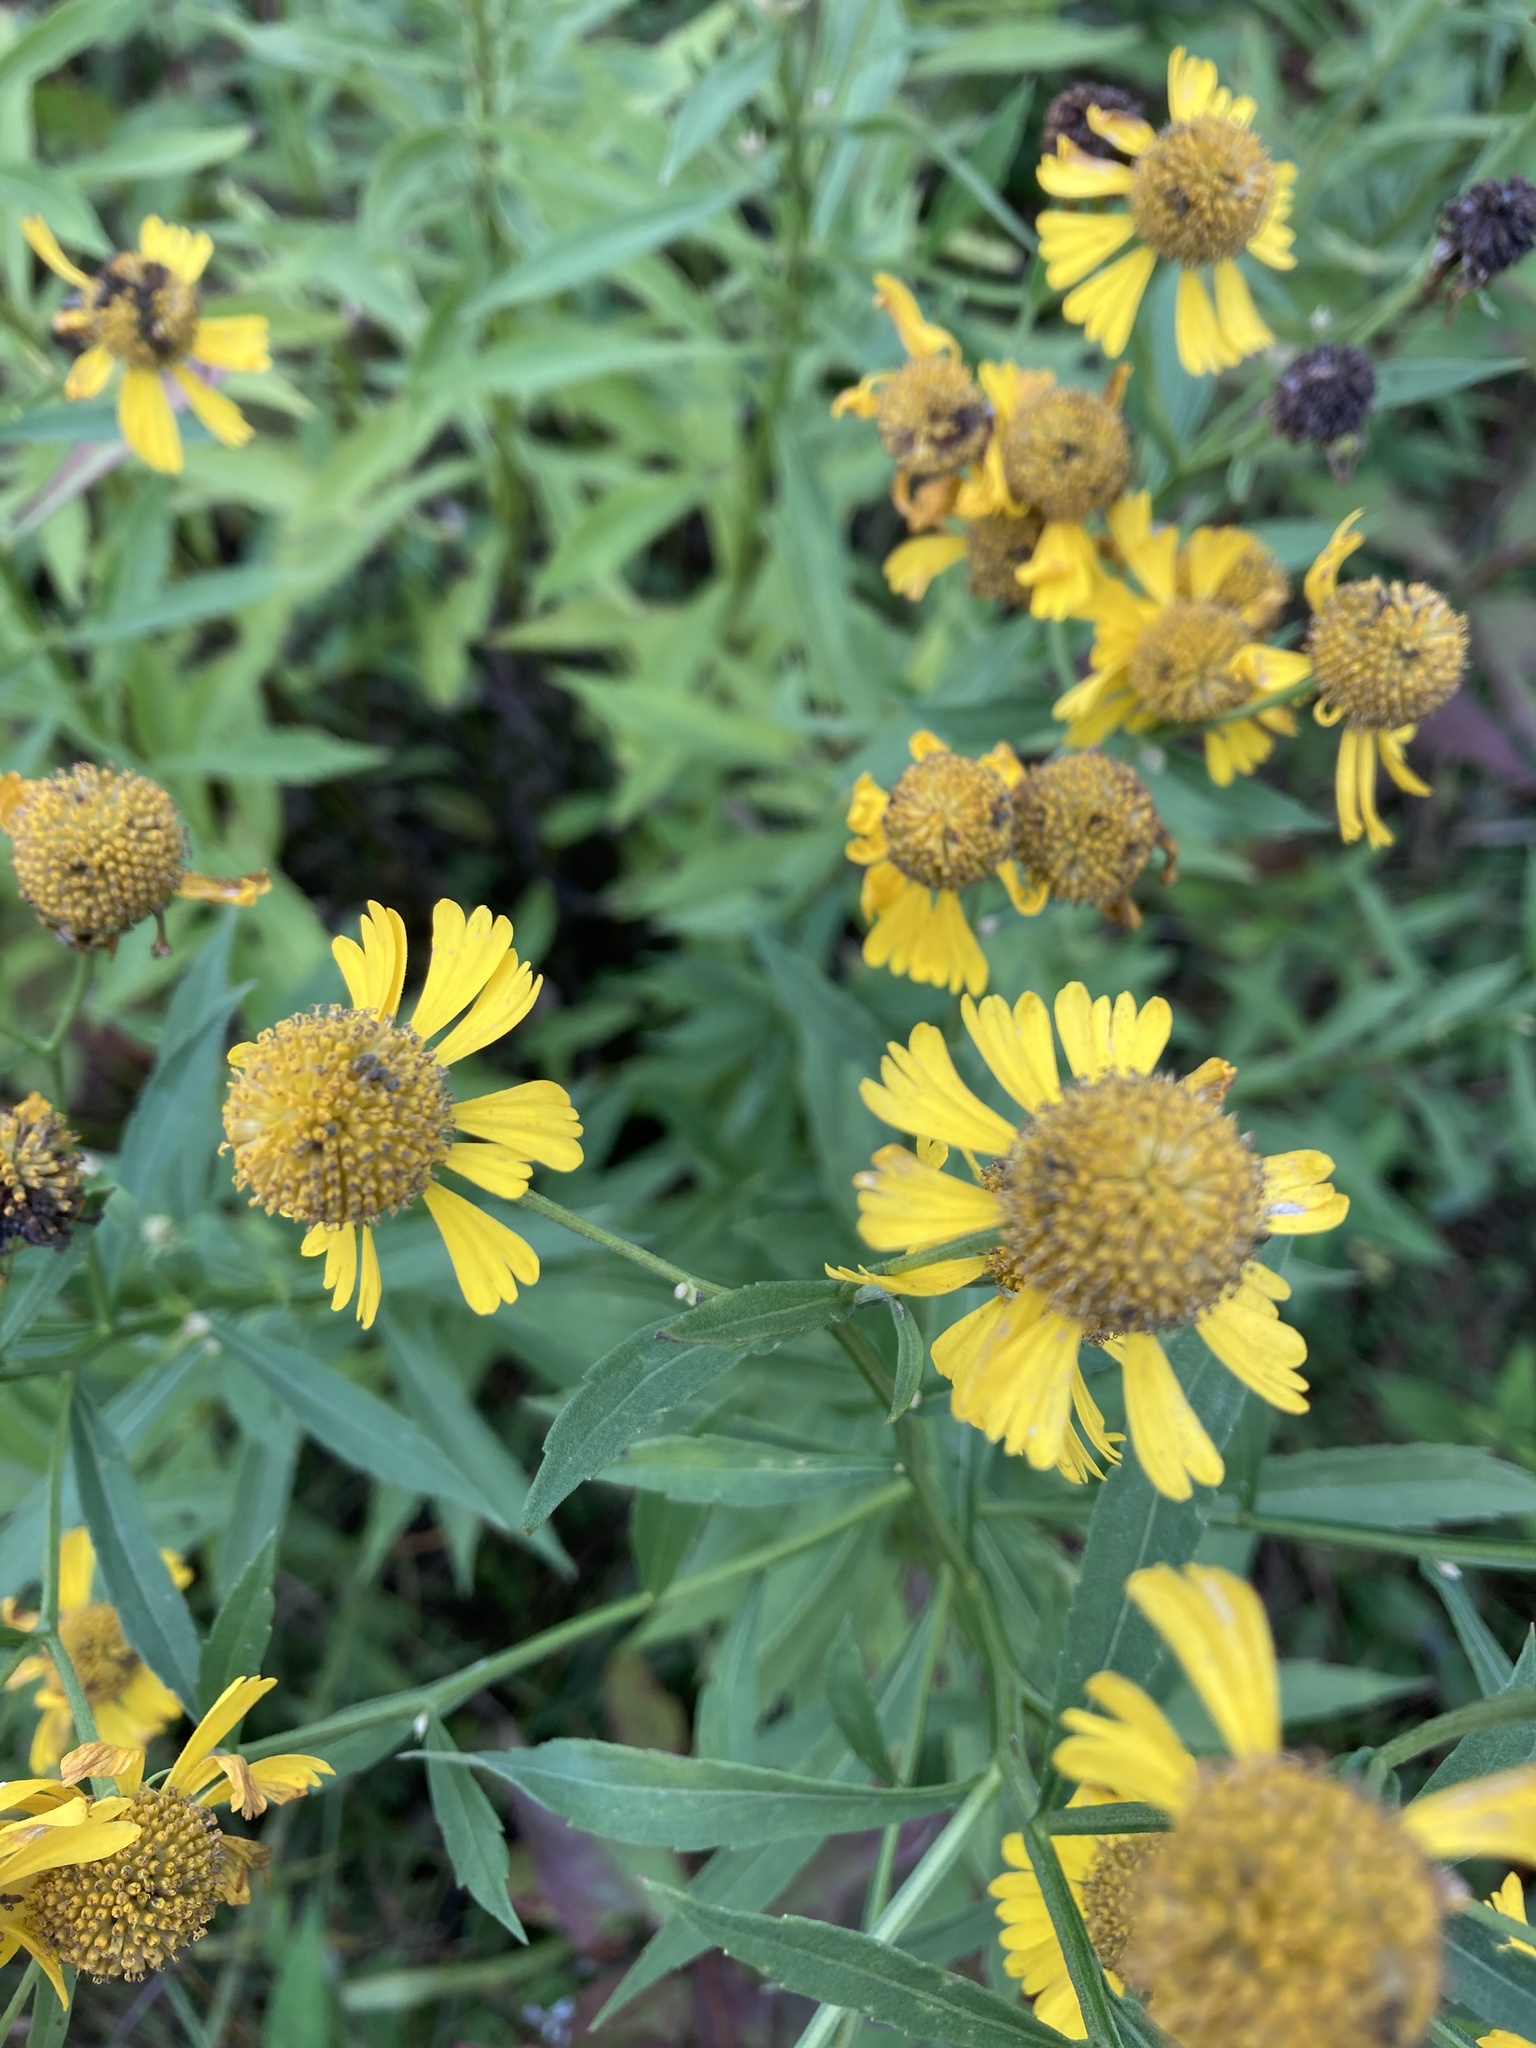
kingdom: Plantae
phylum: Tracheophyta
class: Magnoliopsida
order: Asterales
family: Asteraceae
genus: Helenium
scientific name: Helenium autumnale
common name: Sneezeweed
